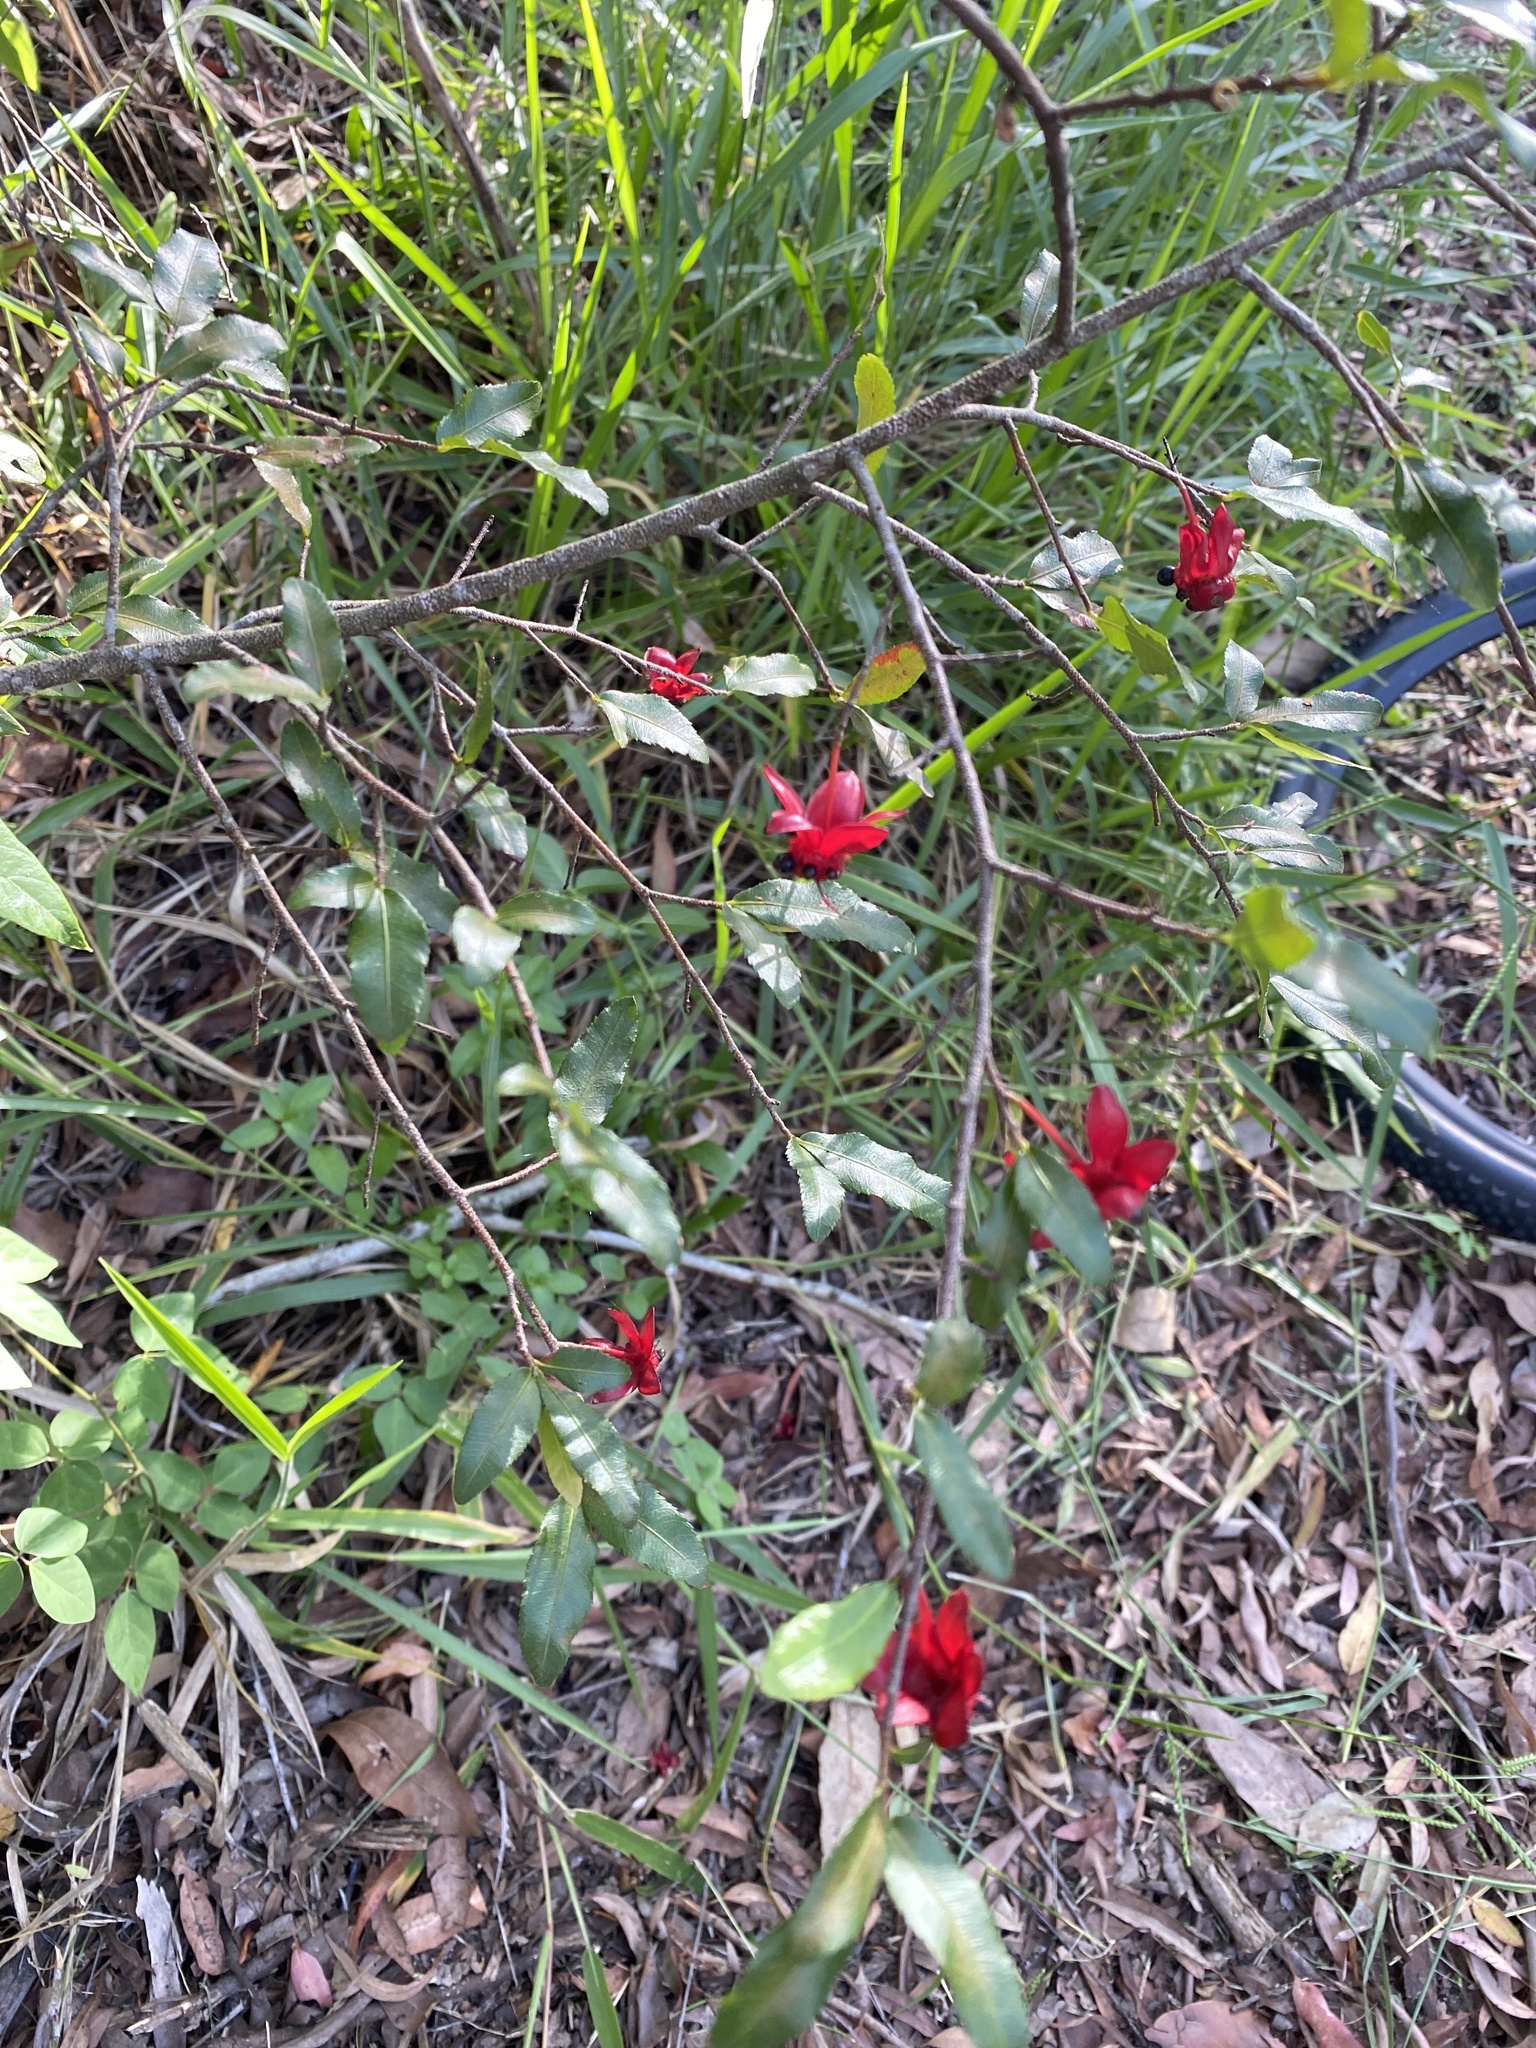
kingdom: Plantae
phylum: Tracheophyta
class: Magnoliopsida
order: Malpighiales
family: Ochnaceae
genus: Ochna
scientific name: Ochna serrulata
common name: Mickey mouse plant
